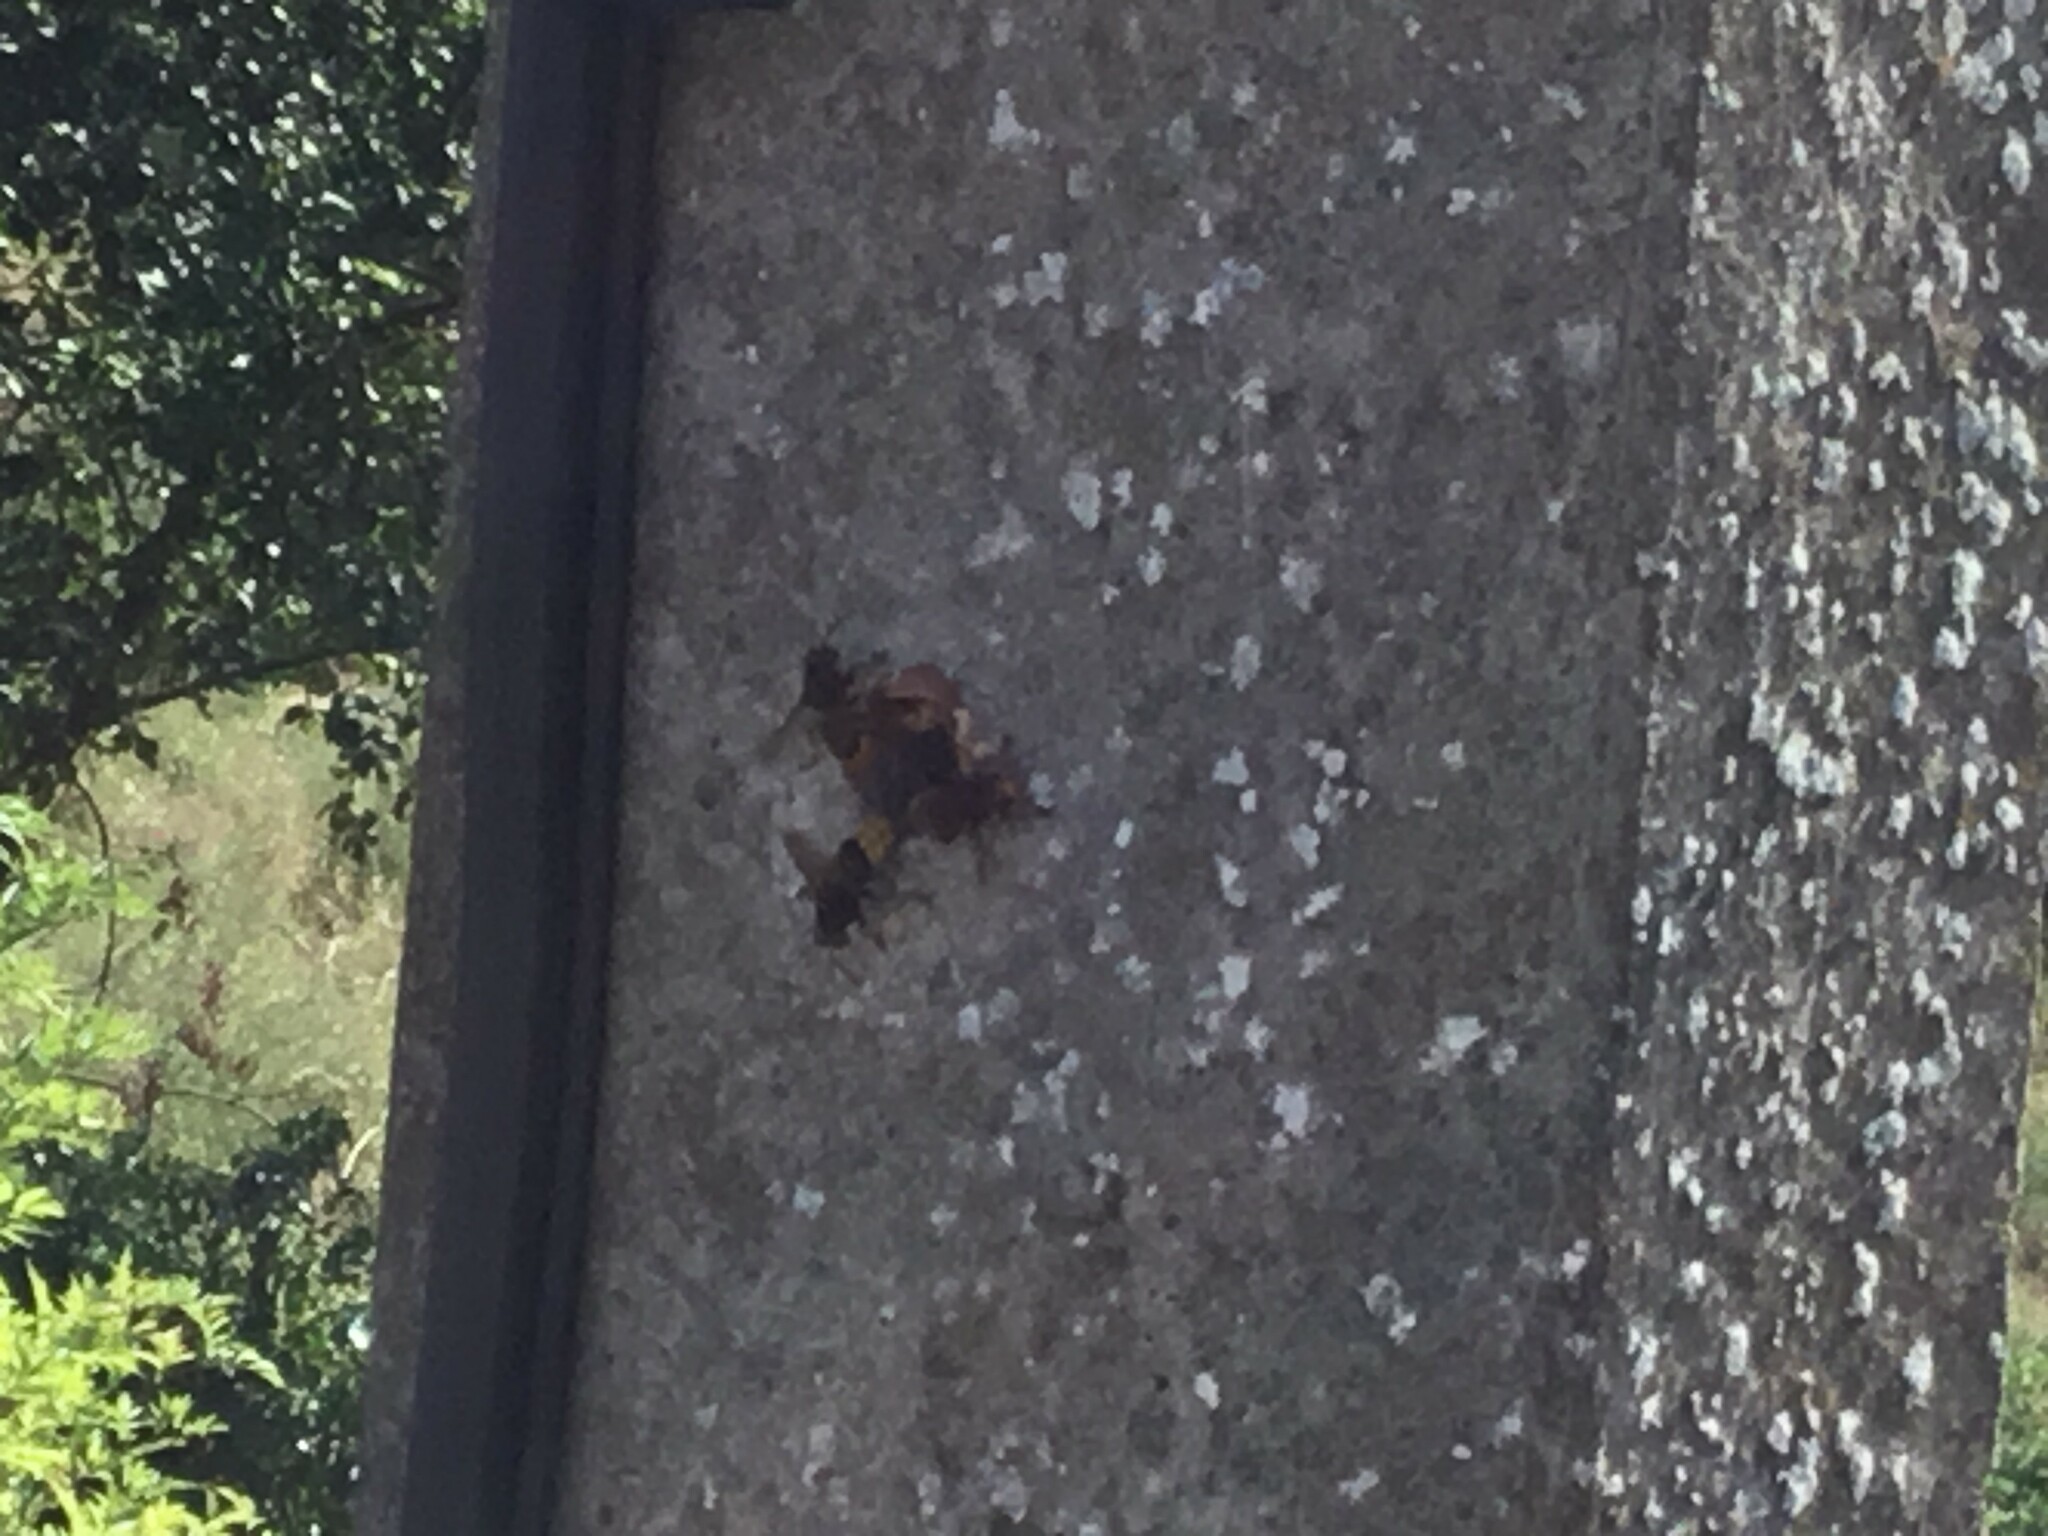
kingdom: Animalia
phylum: Arthropoda
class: Insecta
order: Hymenoptera
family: Vespidae
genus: Vespa
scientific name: Vespa crabro
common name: Hornet
